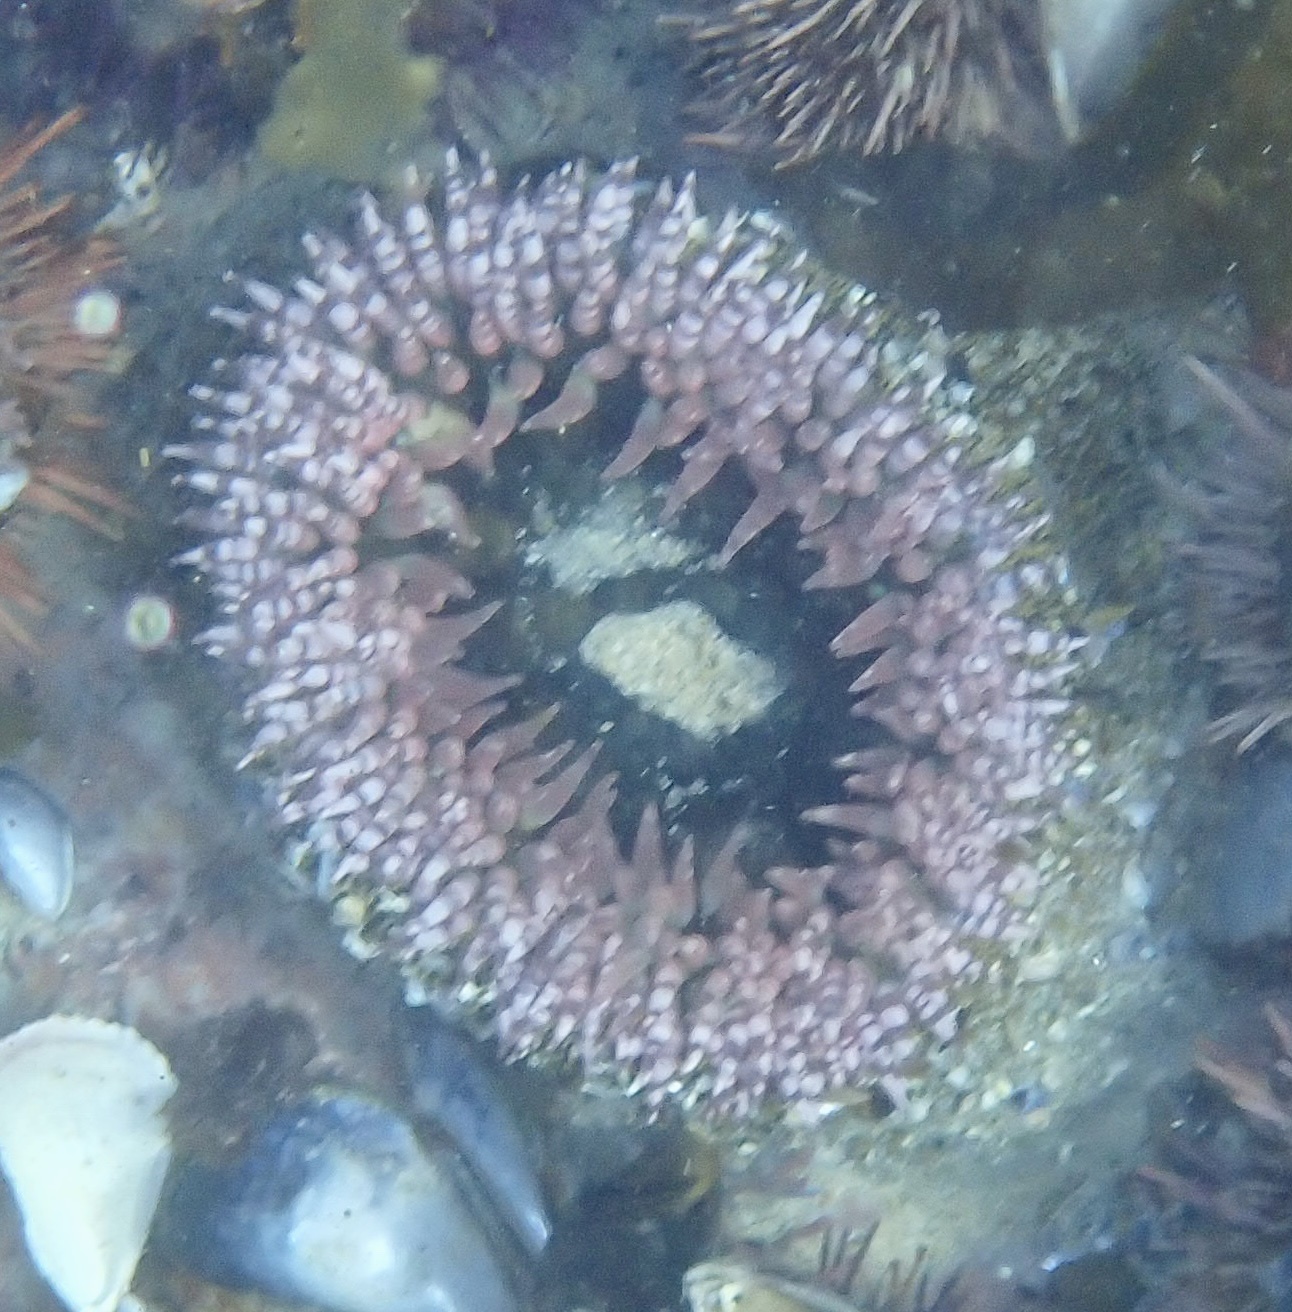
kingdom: Animalia
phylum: Cnidaria
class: Anthozoa
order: Actiniaria
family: Actiniidae
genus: Bunodactis
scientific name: Bunodactis reynaudi
